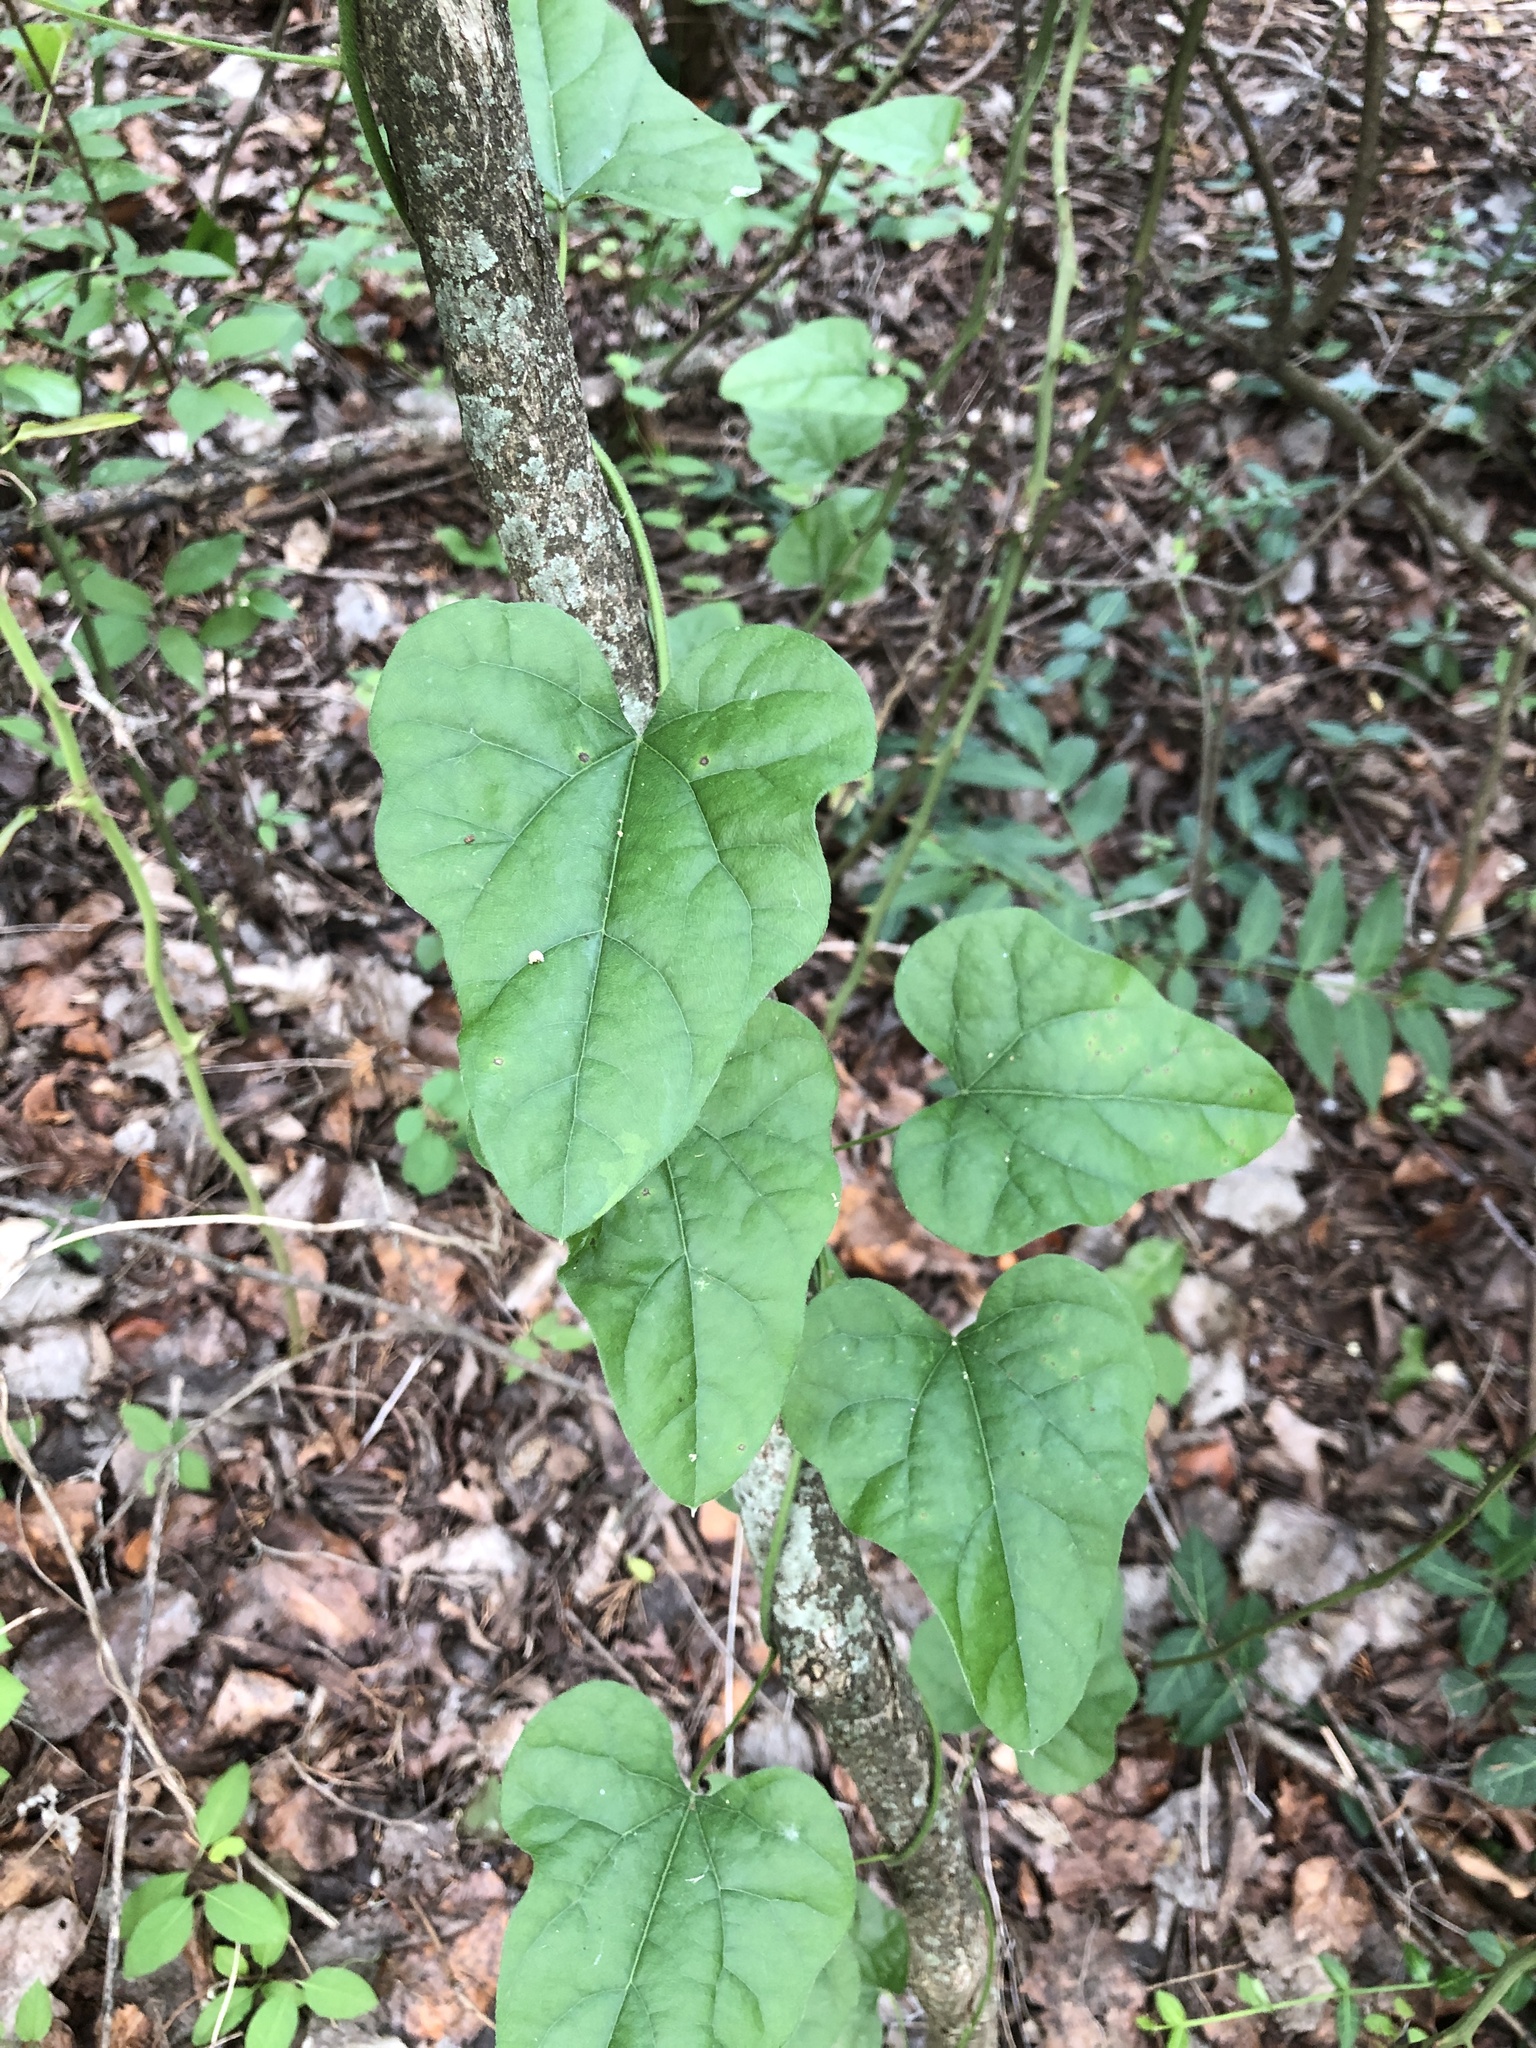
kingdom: Plantae
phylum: Tracheophyta
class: Magnoliopsida
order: Ranunculales
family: Menispermaceae
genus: Cocculus
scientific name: Cocculus carolinus
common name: Carolina moonseed
